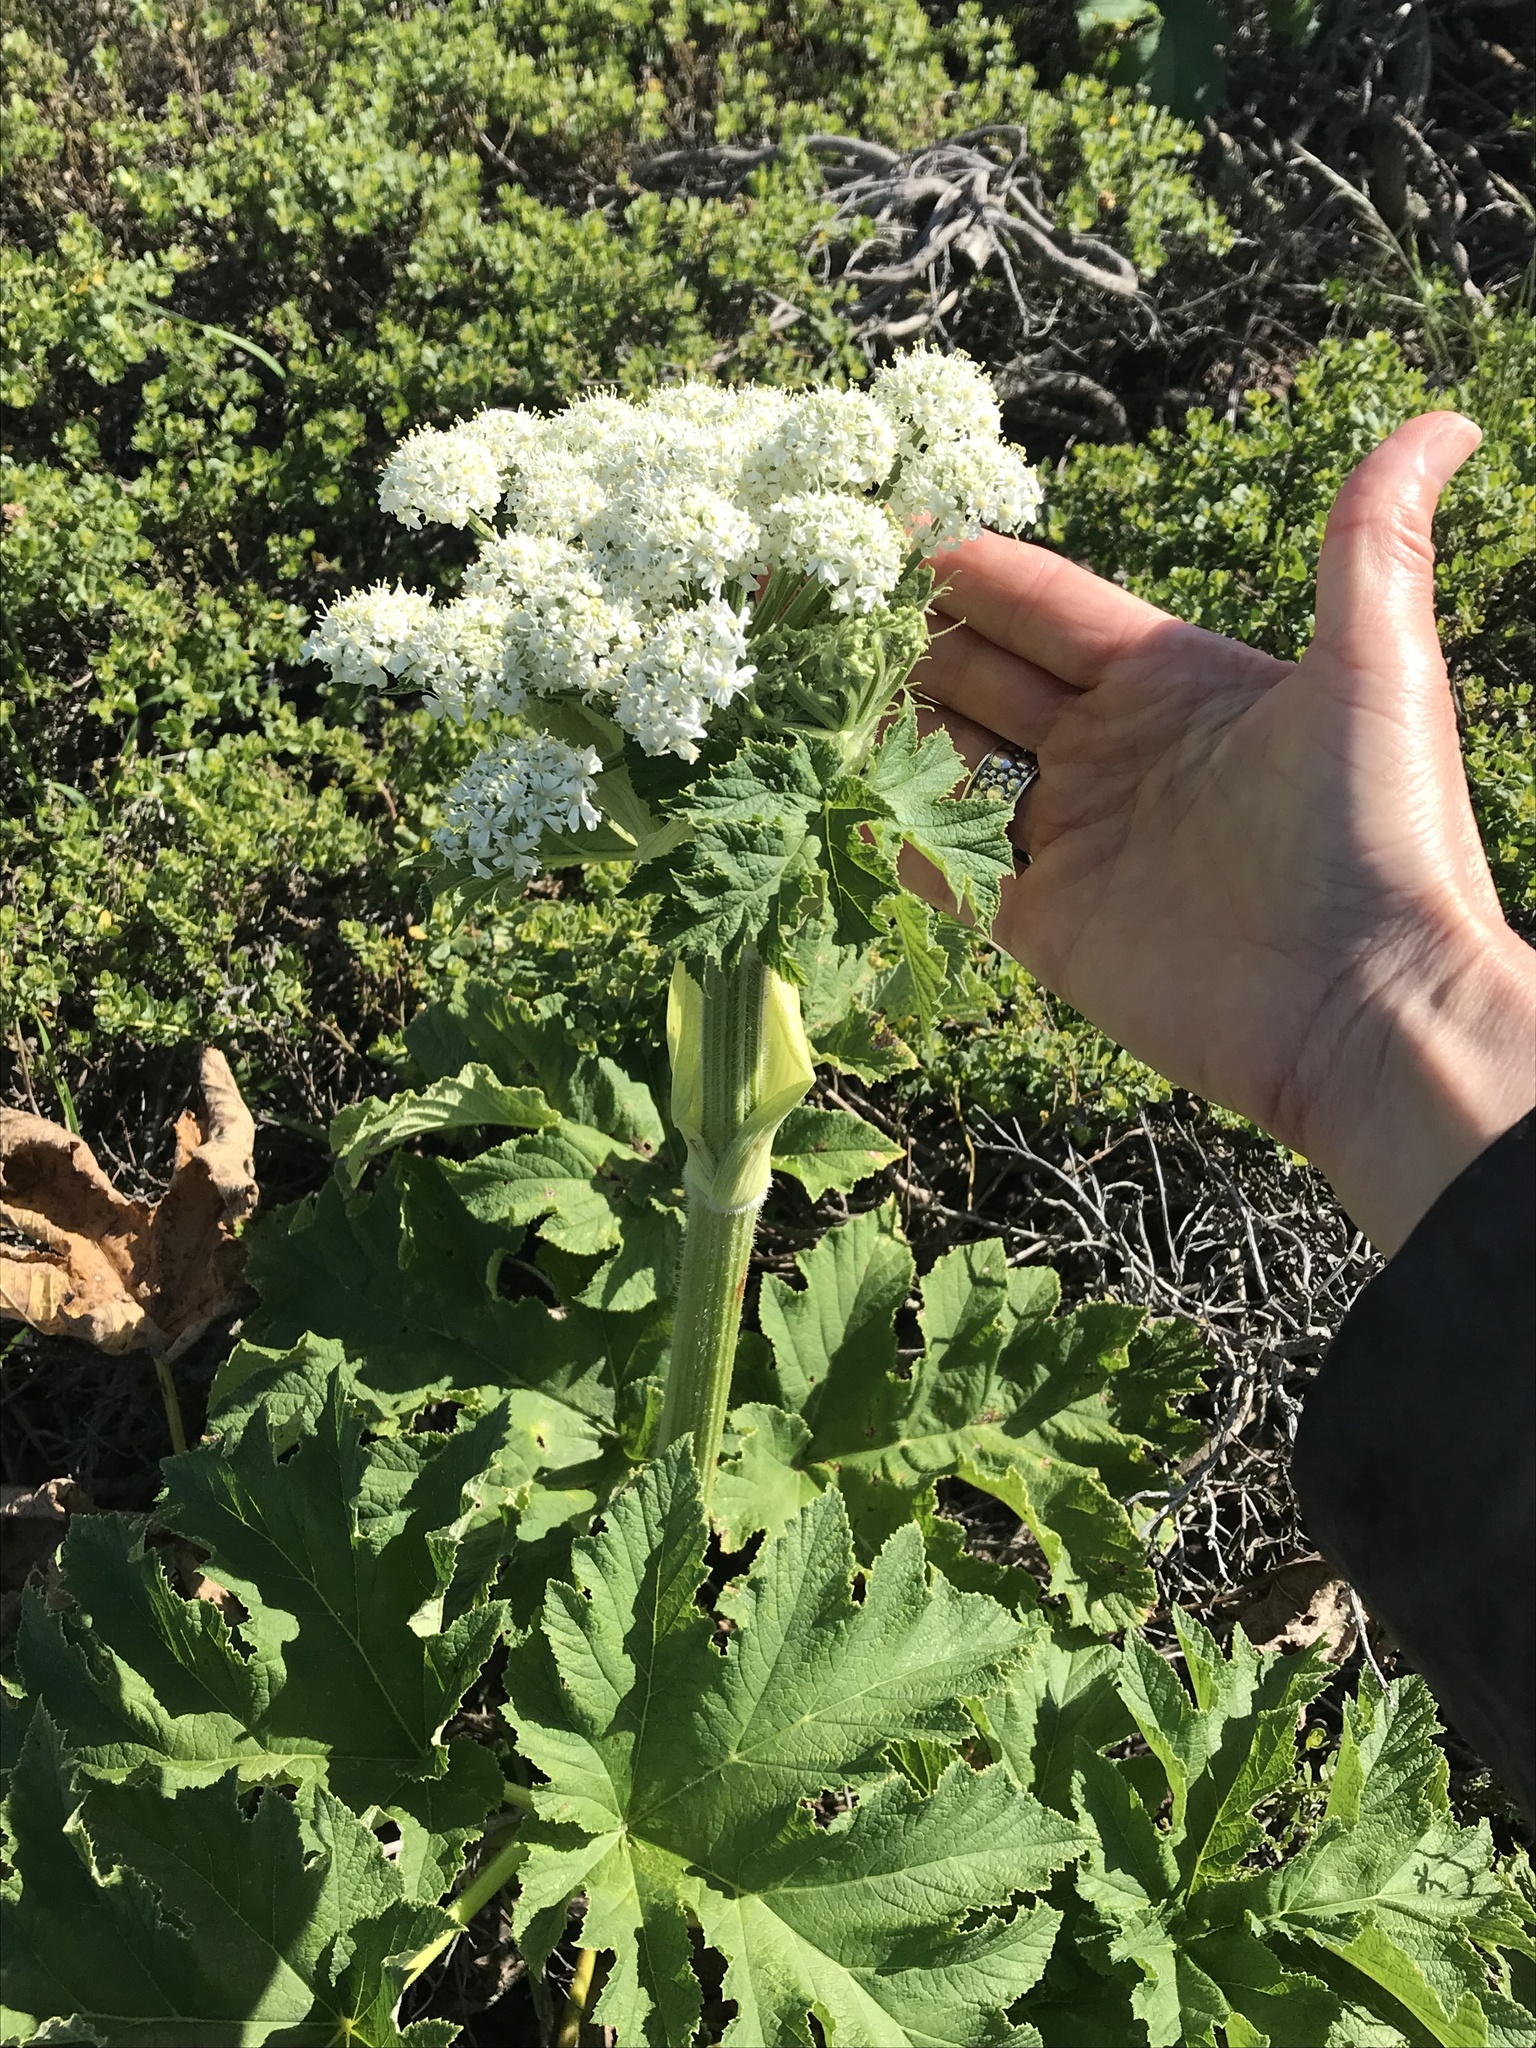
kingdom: Plantae
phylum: Tracheophyta
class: Magnoliopsida
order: Apiales
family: Apiaceae
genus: Heracleum
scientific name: Heracleum maximum
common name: American cow parsnip
